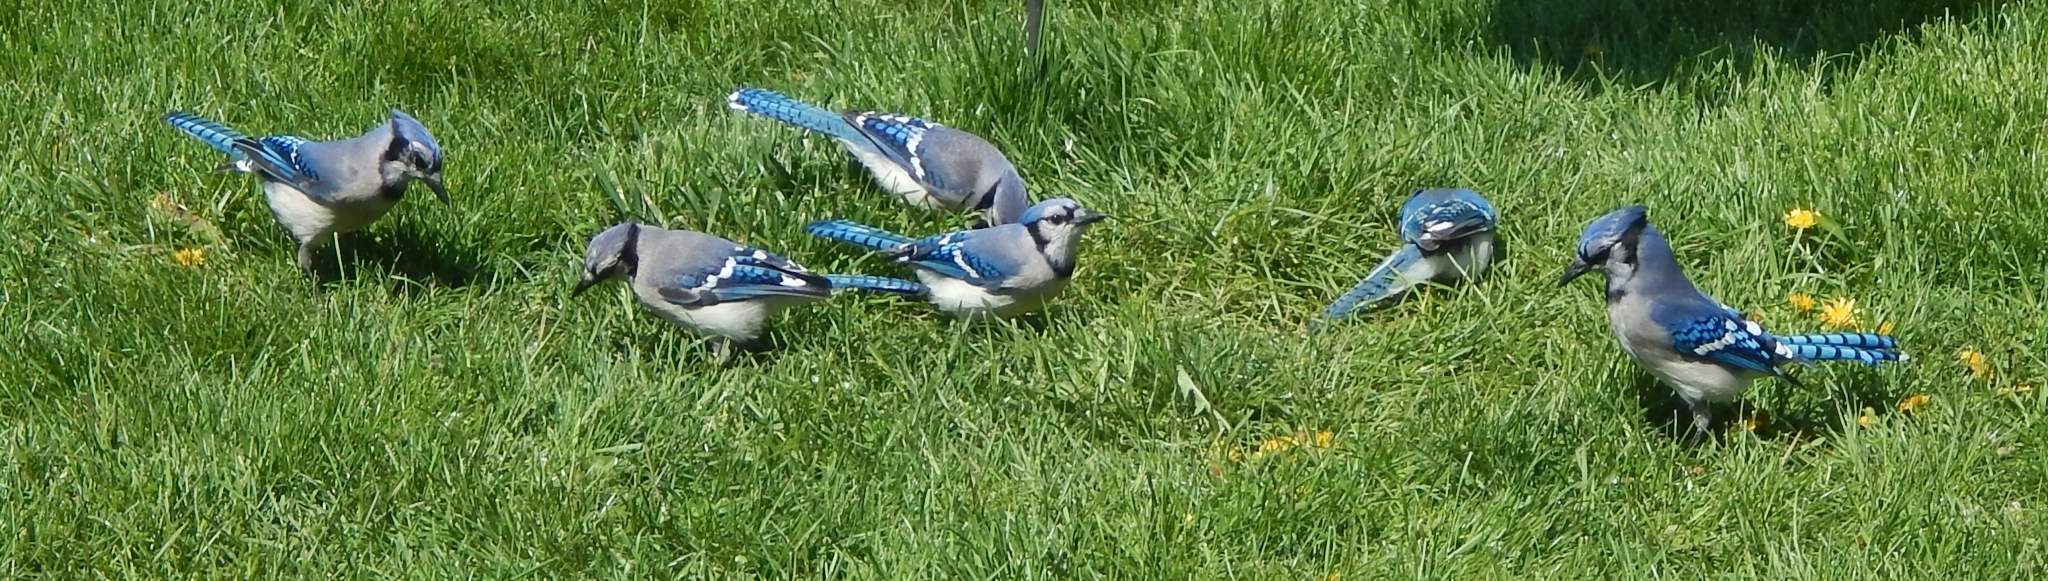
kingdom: Animalia
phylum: Chordata
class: Aves
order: Passeriformes
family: Corvidae
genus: Cyanocitta
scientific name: Cyanocitta cristata
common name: Blue jay
